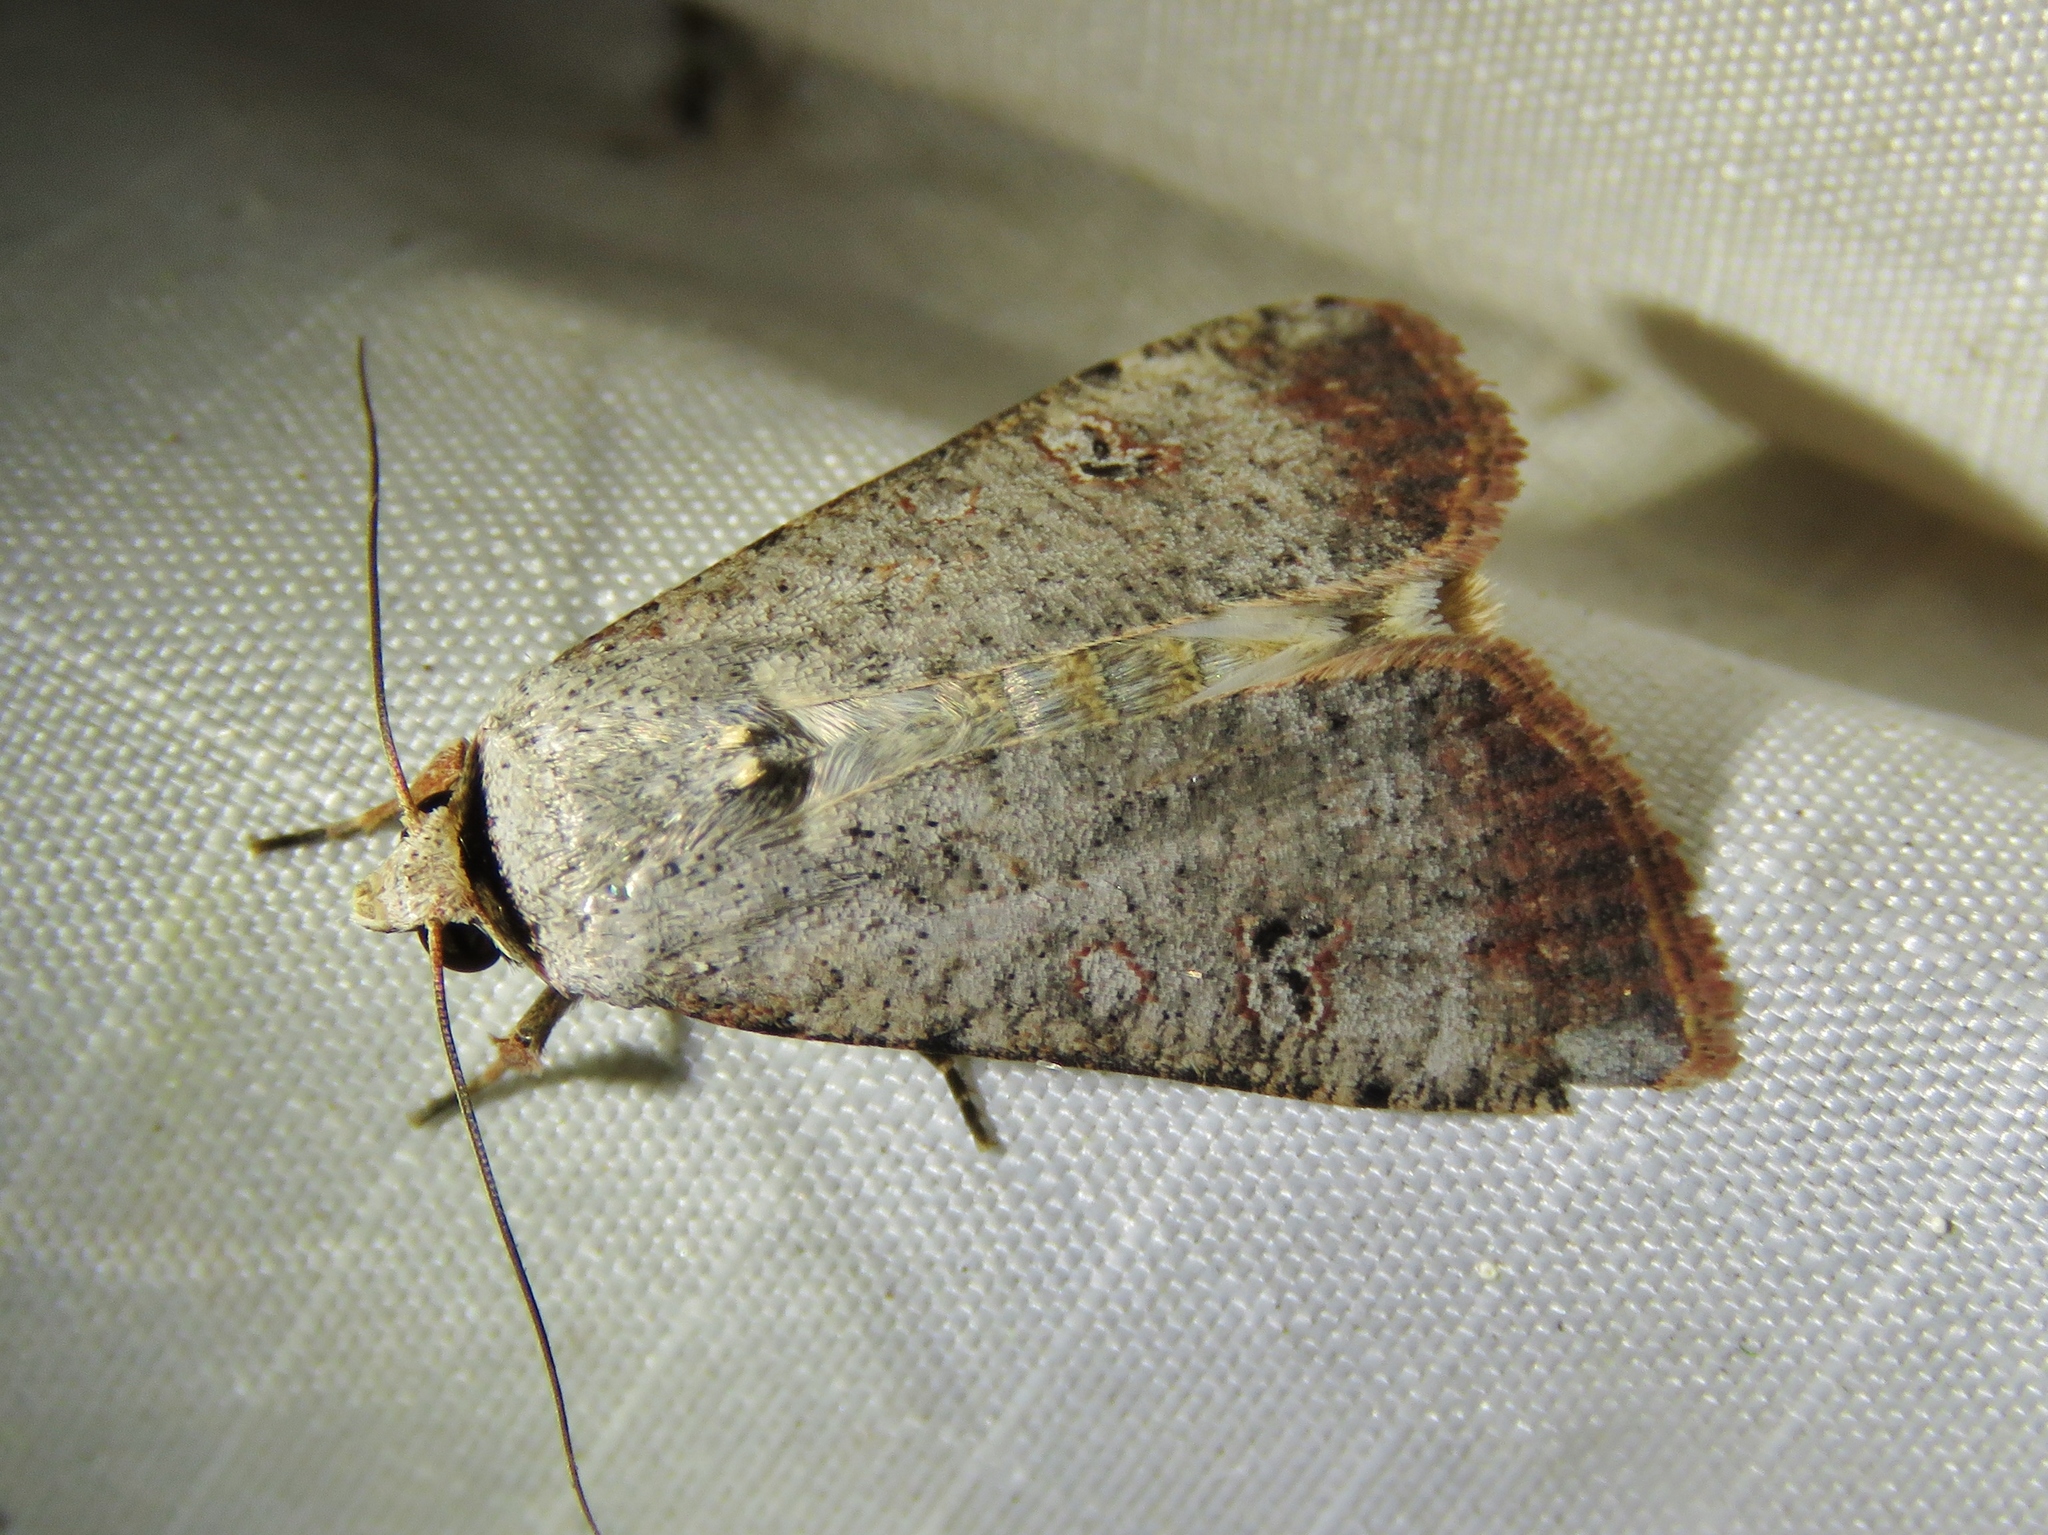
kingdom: Animalia
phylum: Arthropoda
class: Insecta
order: Lepidoptera
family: Noctuidae
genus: Anicla
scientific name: Anicla infecta
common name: Green cutworm
